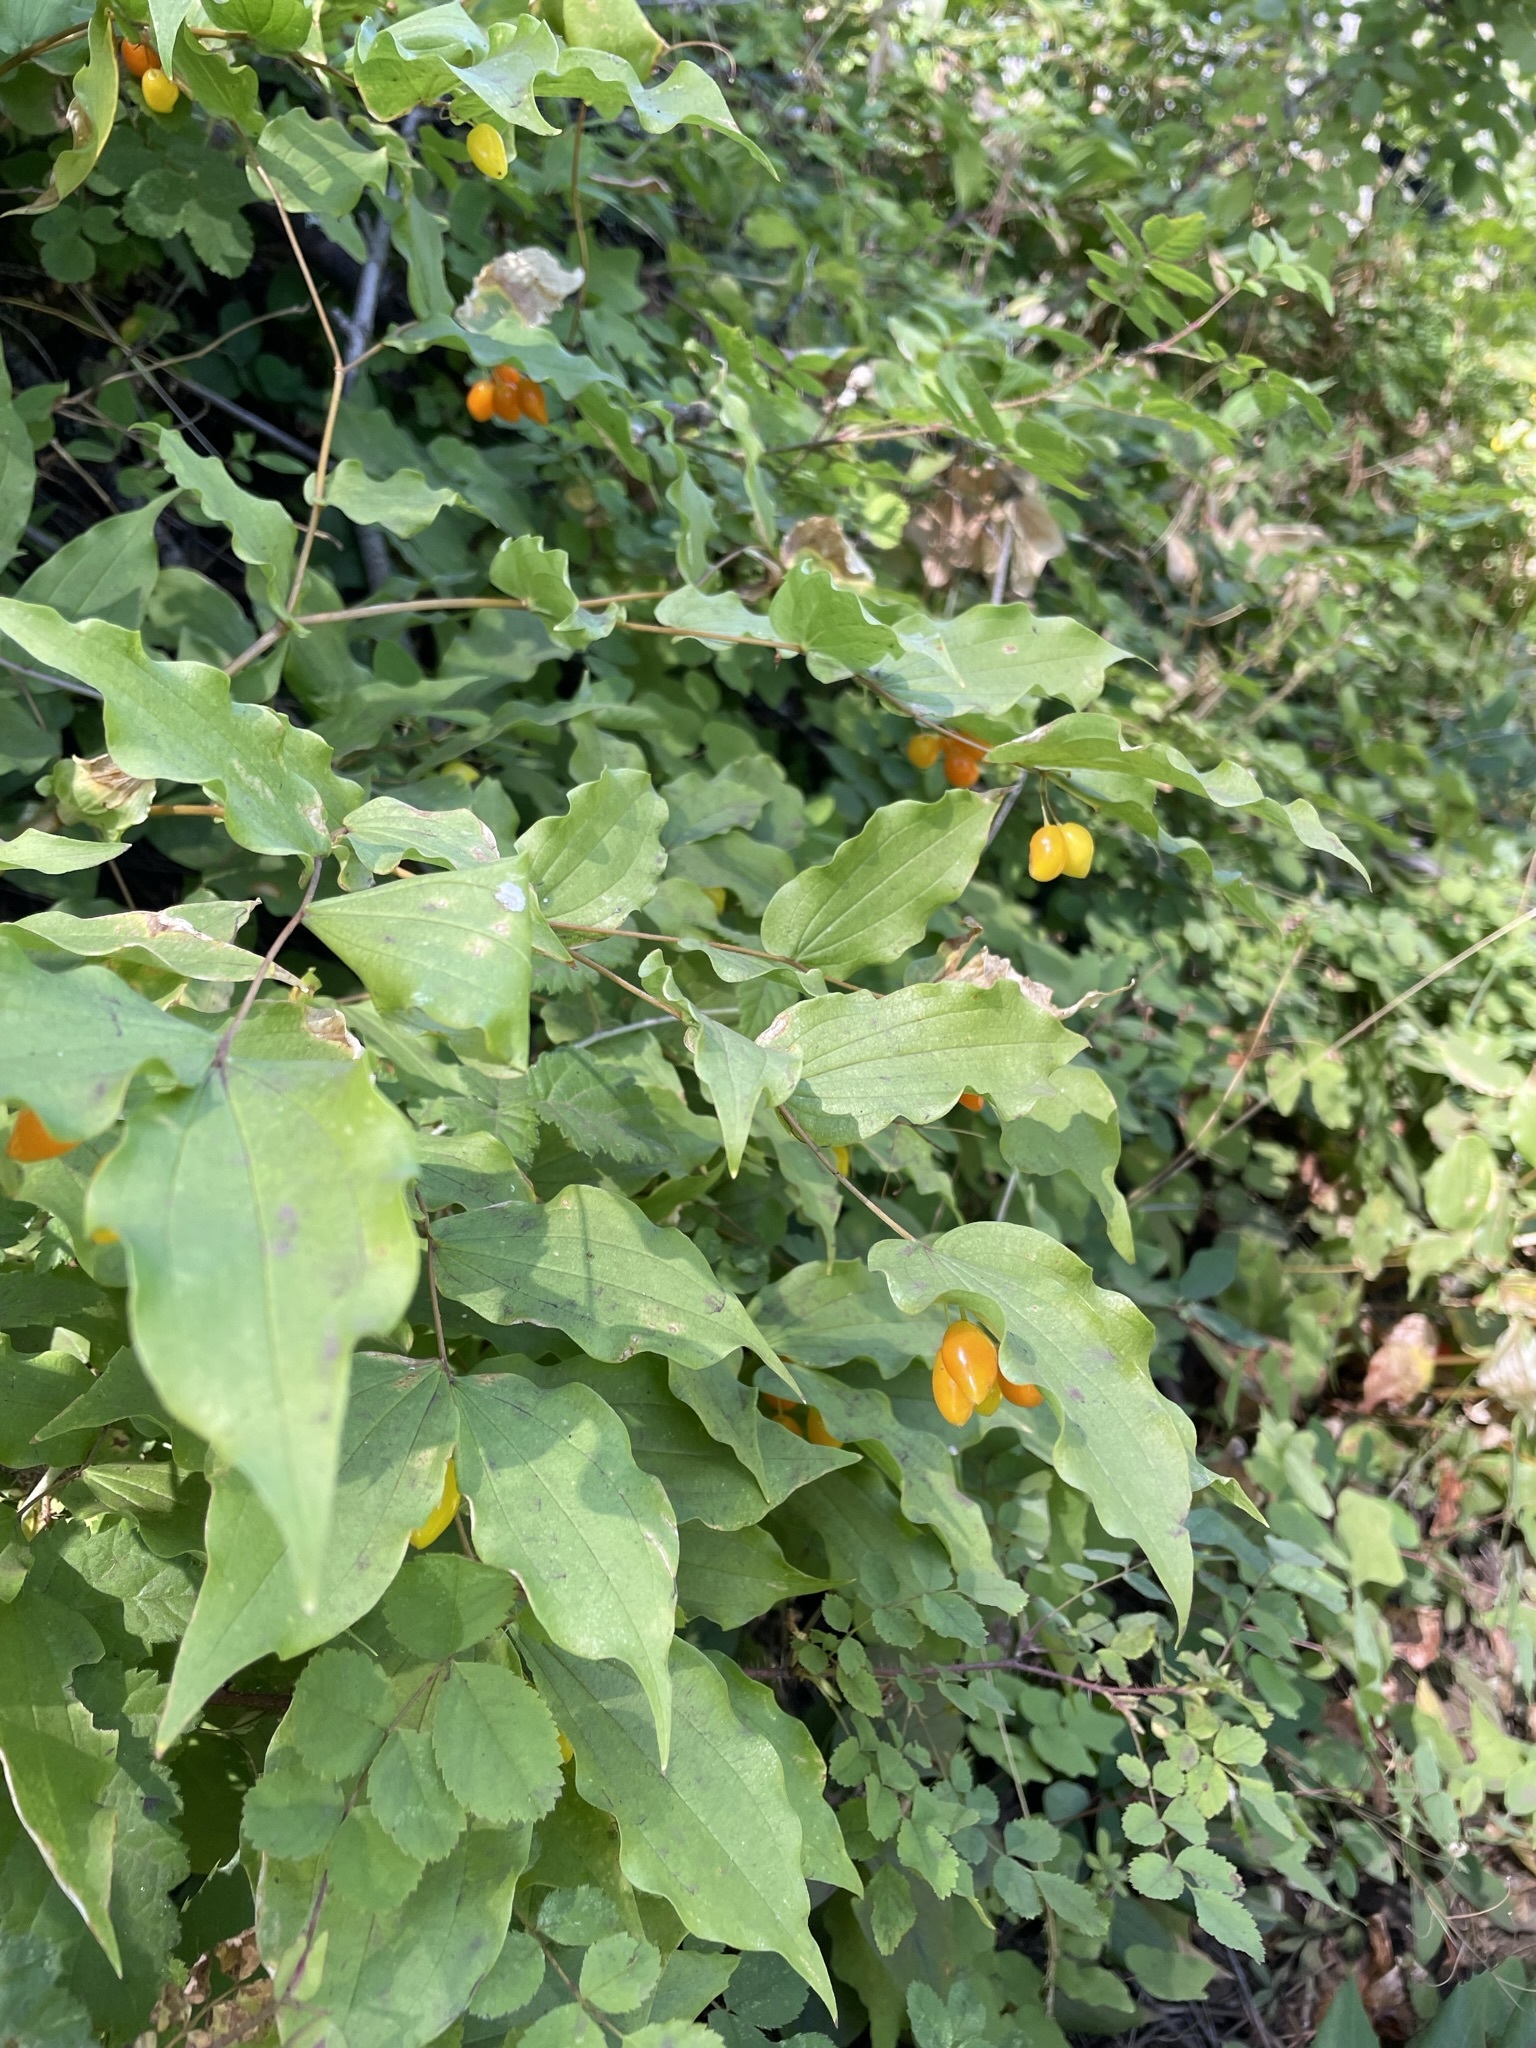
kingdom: Plantae
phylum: Tracheophyta
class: Liliopsida
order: Liliales
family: Liliaceae
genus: Prosartes
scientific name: Prosartes hookeri
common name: Fairy-bells
